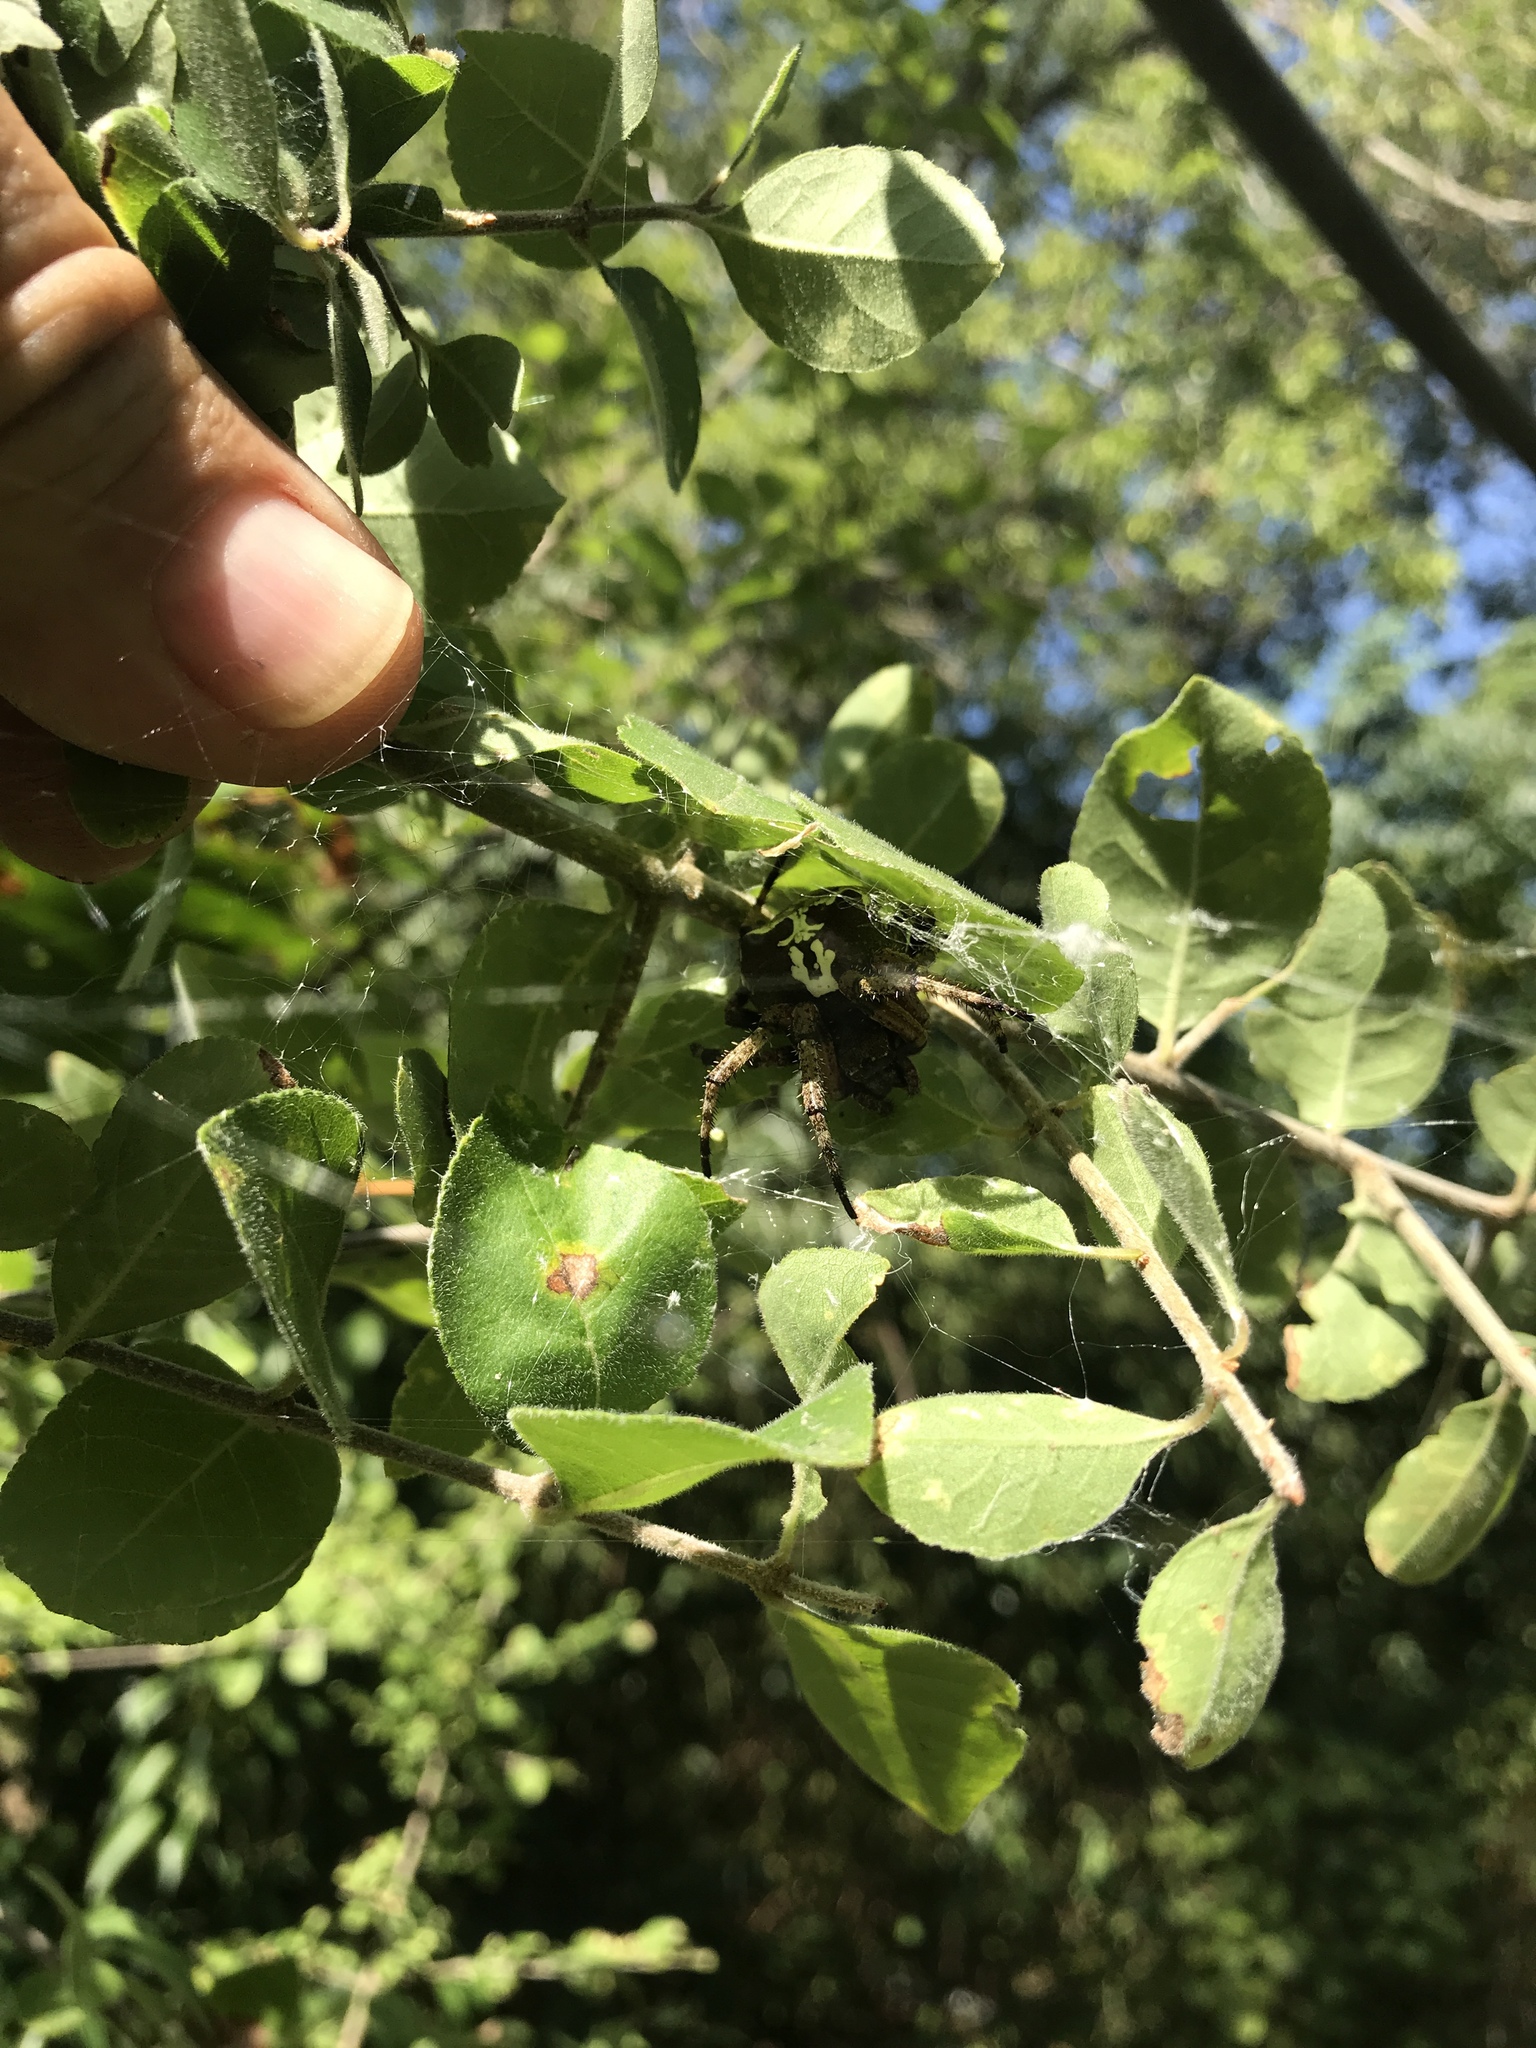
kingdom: Animalia
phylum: Arthropoda
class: Arachnida
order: Araneae
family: Araneidae
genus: Araneus
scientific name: Araneus bicentenarius
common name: Giant lichen orbweaver
